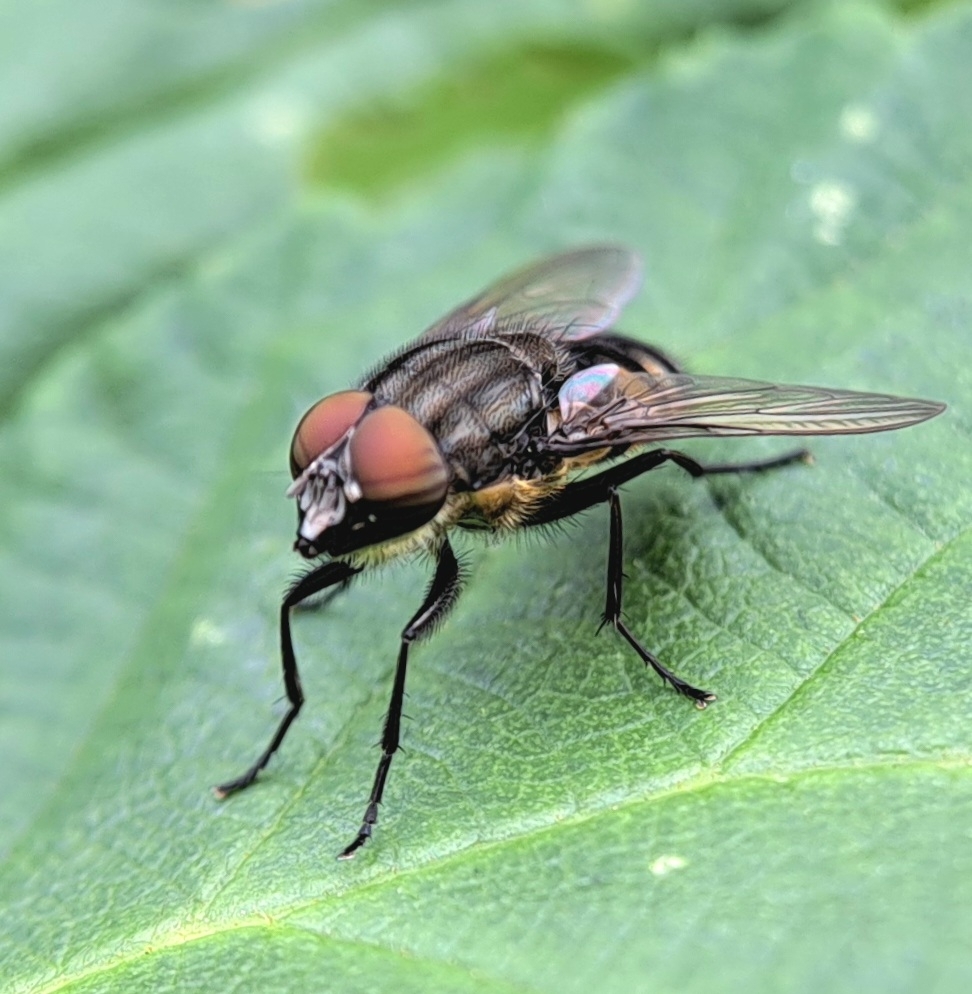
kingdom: Animalia
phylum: Arthropoda
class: Insecta
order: Diptera
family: Calliphoridae
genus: Stomorhina
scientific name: Stomorhina lunata
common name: Locust blowfly
